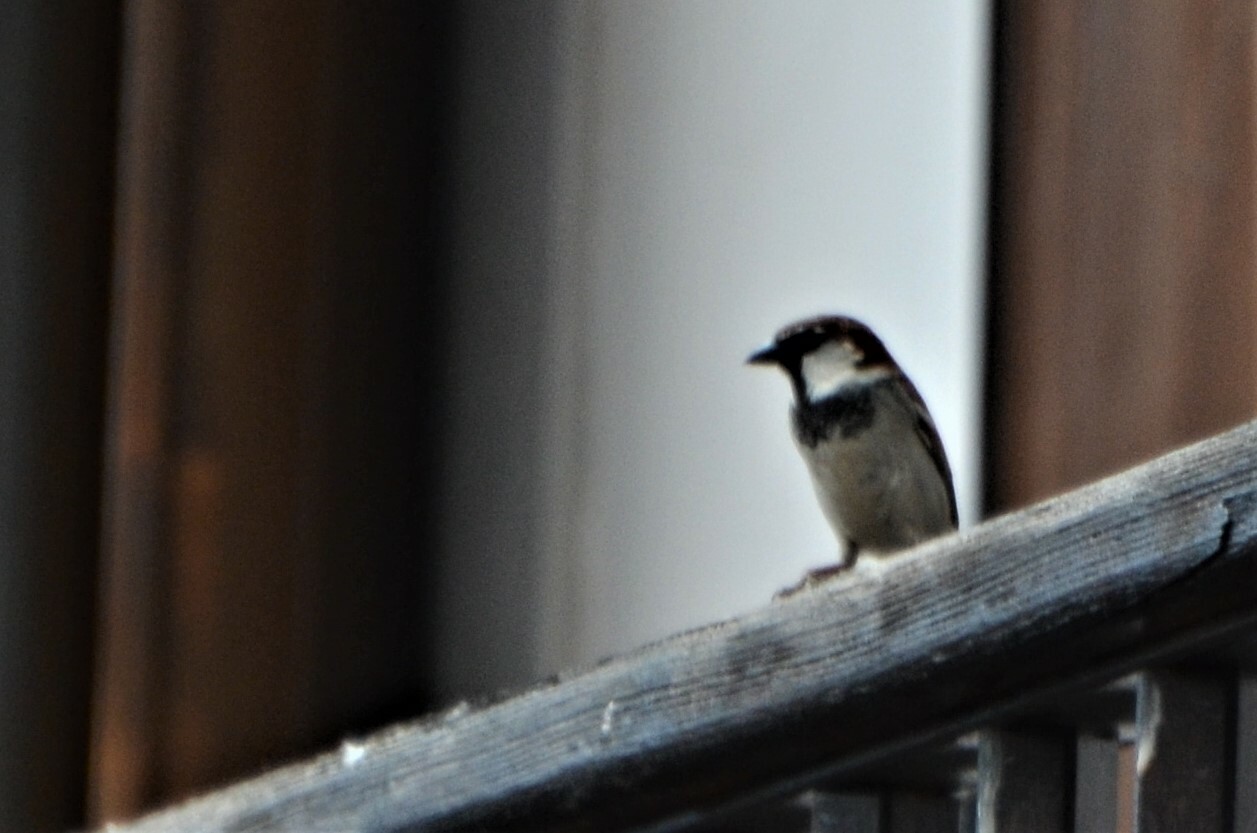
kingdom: Animalia
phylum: Chordata
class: Aves
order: Passeriformes
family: Passeridae
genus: Passer
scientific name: Passer domesticus
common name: House sparrow
